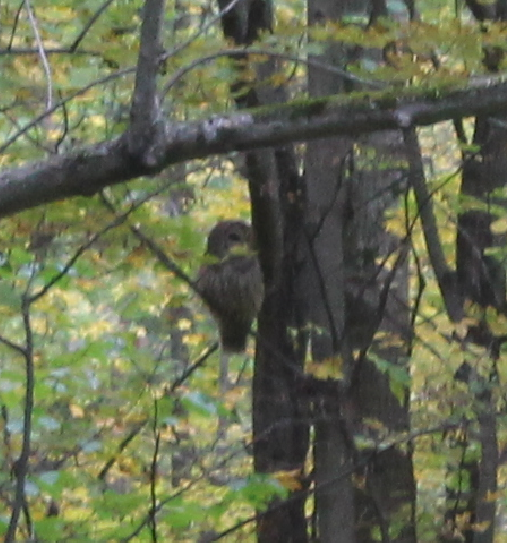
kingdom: Animalia
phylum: Chordata
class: Aves
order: Strigiformes
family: Strigidae
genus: Strix
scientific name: Strix varia
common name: Barred owl
